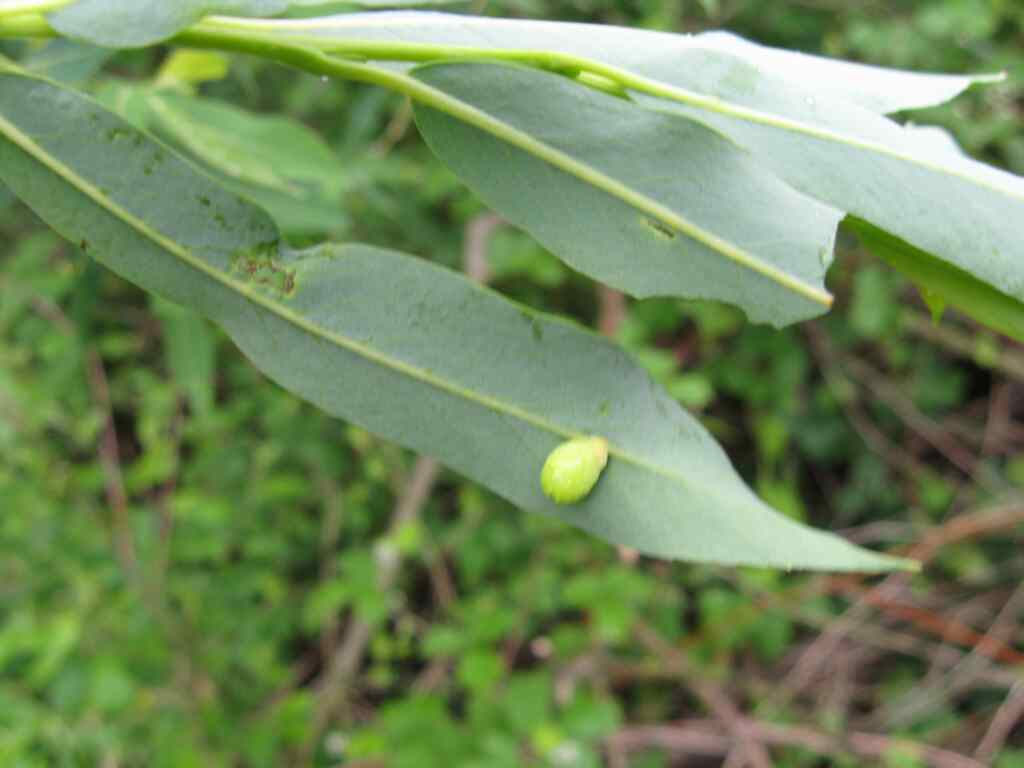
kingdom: Animalia
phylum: Arthropoda
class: Insecta
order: Hymenoptera
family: Tenthredinidae
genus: Euura
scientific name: Euura viminalis
